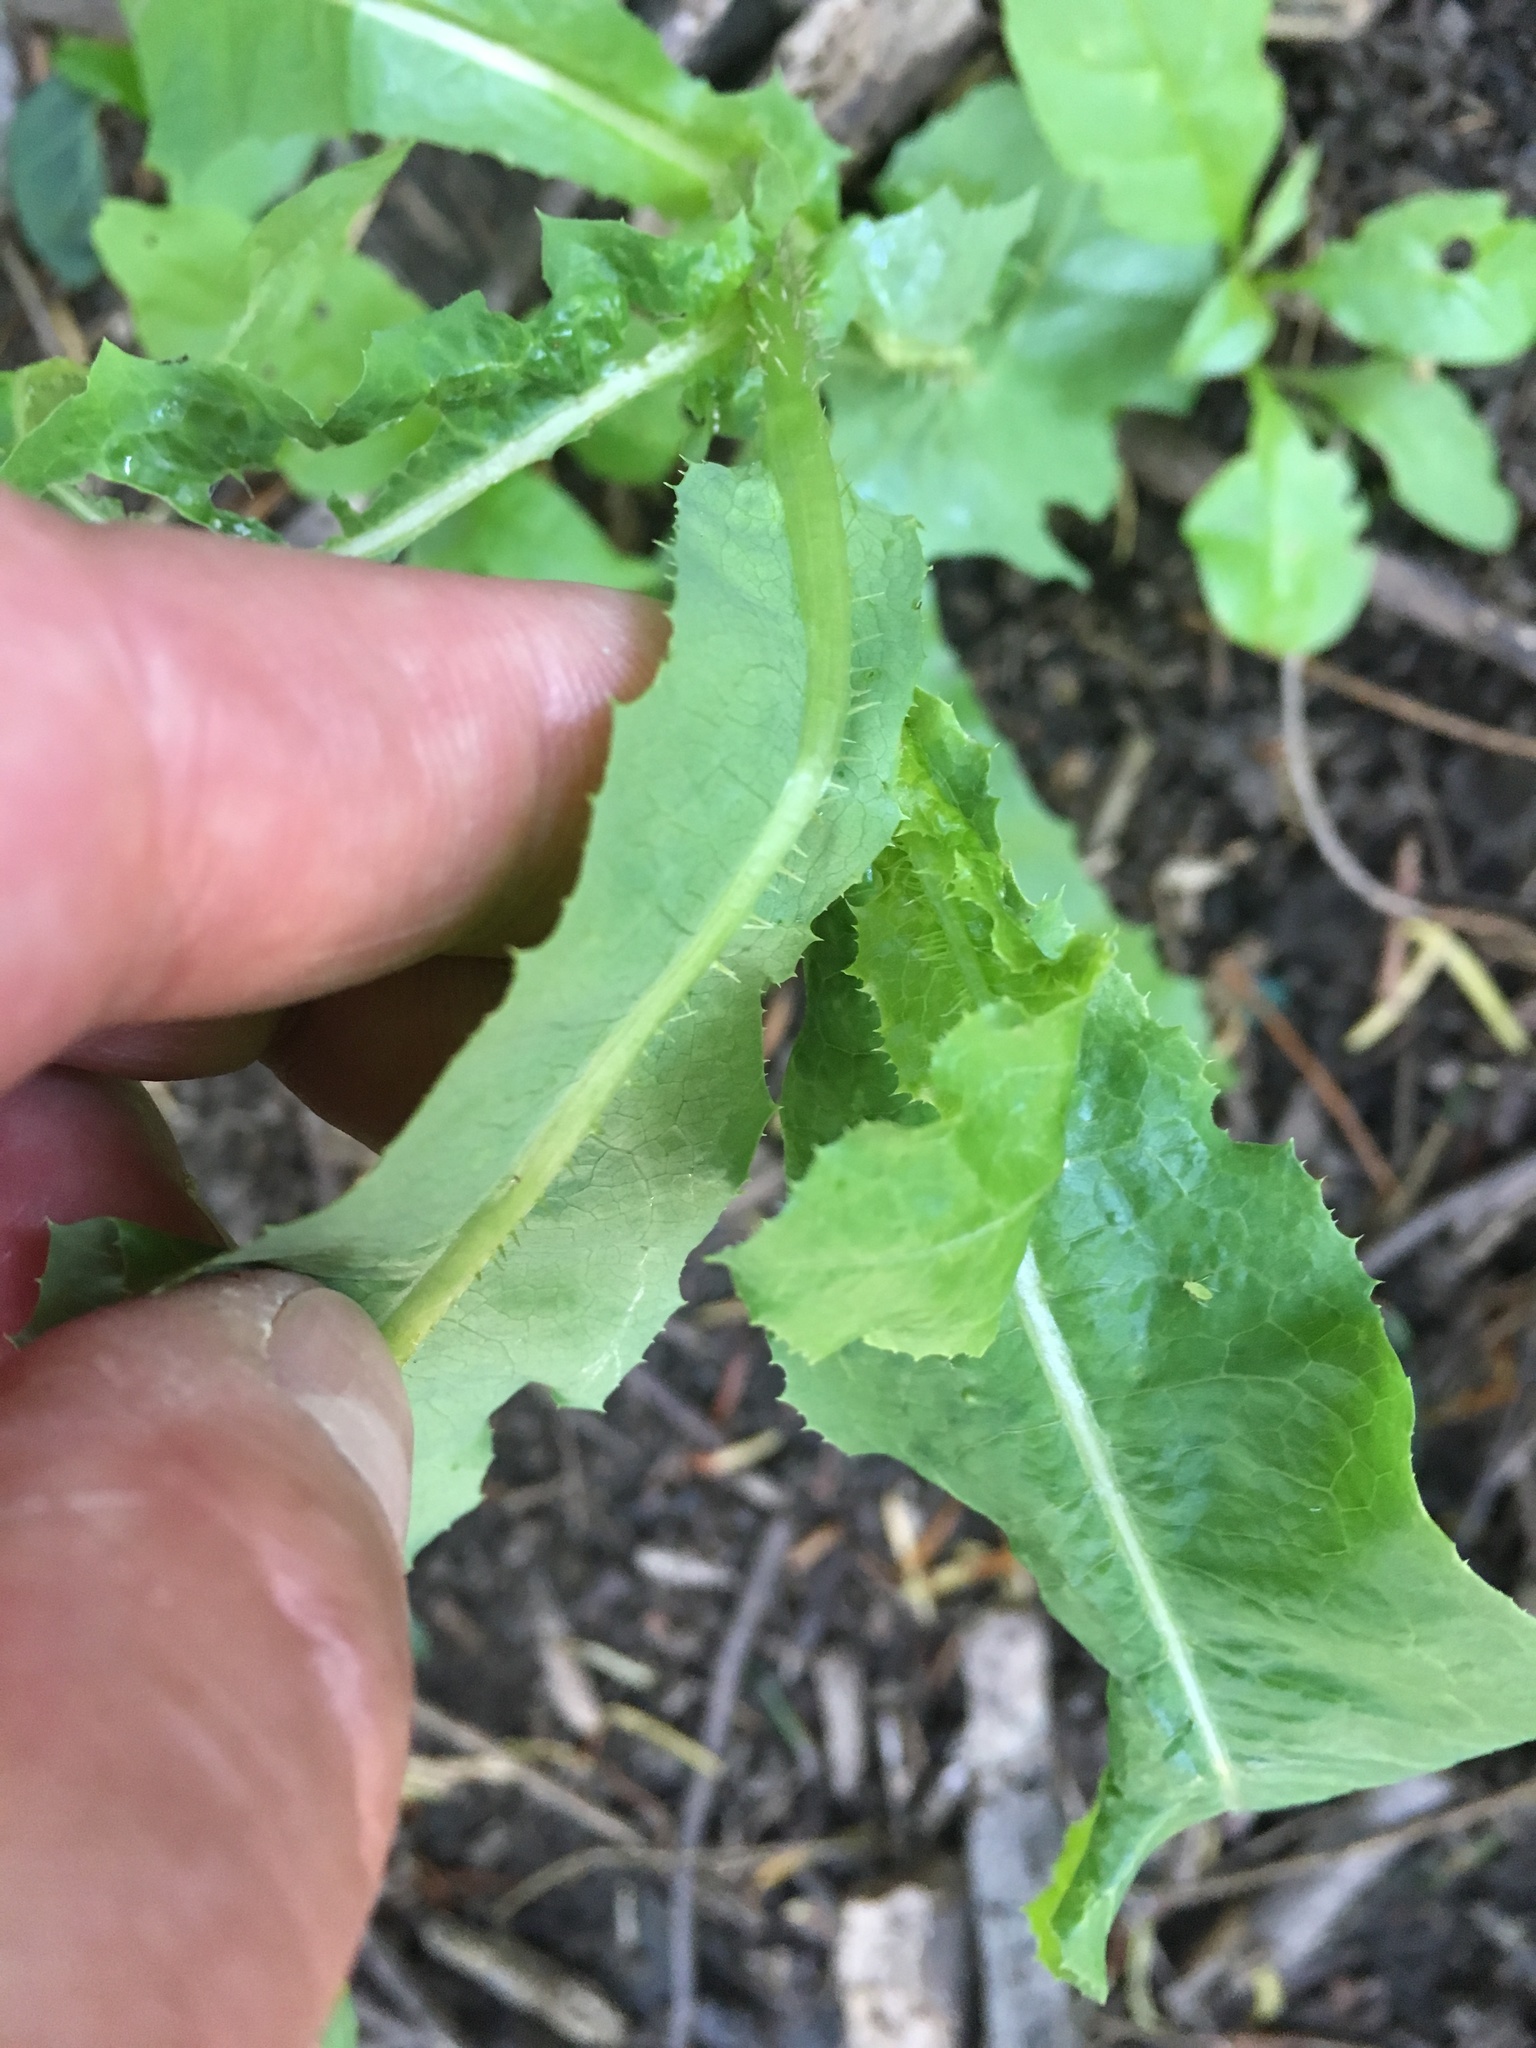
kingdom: Plantae
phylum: Tracheophyta
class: Magnoliopsida
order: Asterales
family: Asteraceae
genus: Lactuca
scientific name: Lactuca serriola
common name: Prickly lettuce
